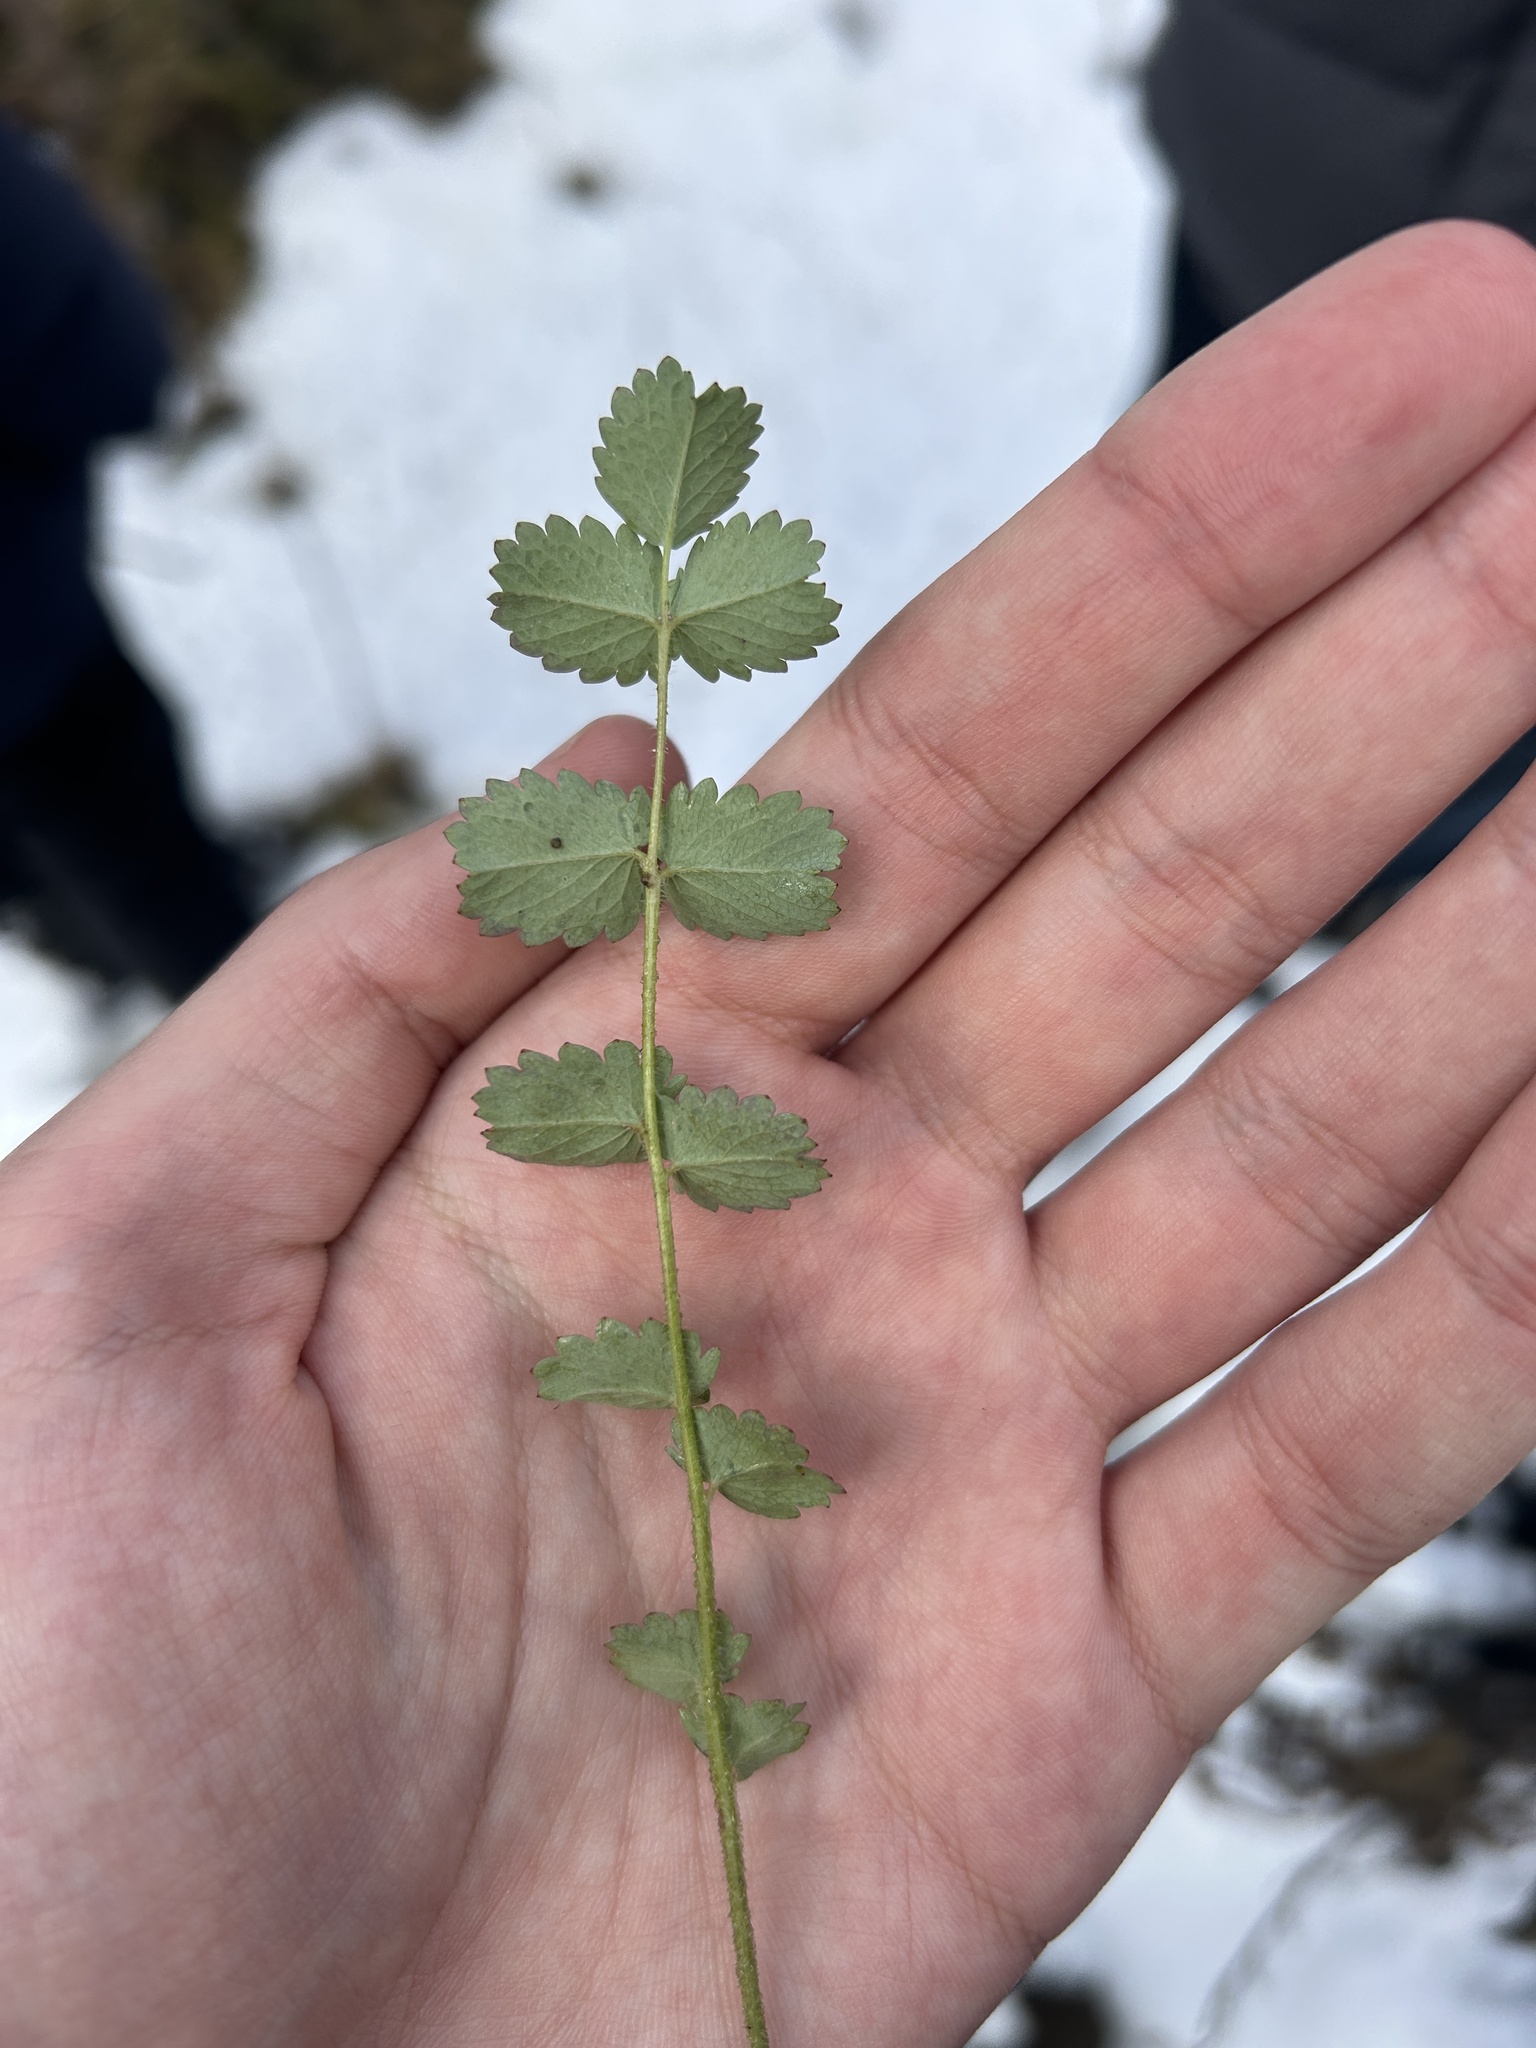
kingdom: Plantae
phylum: Tracheophyta
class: Magnoliopsida
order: Rosales
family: Rosaceae
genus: Poterium
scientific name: Poterium sanguisorba
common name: Salad burnet
